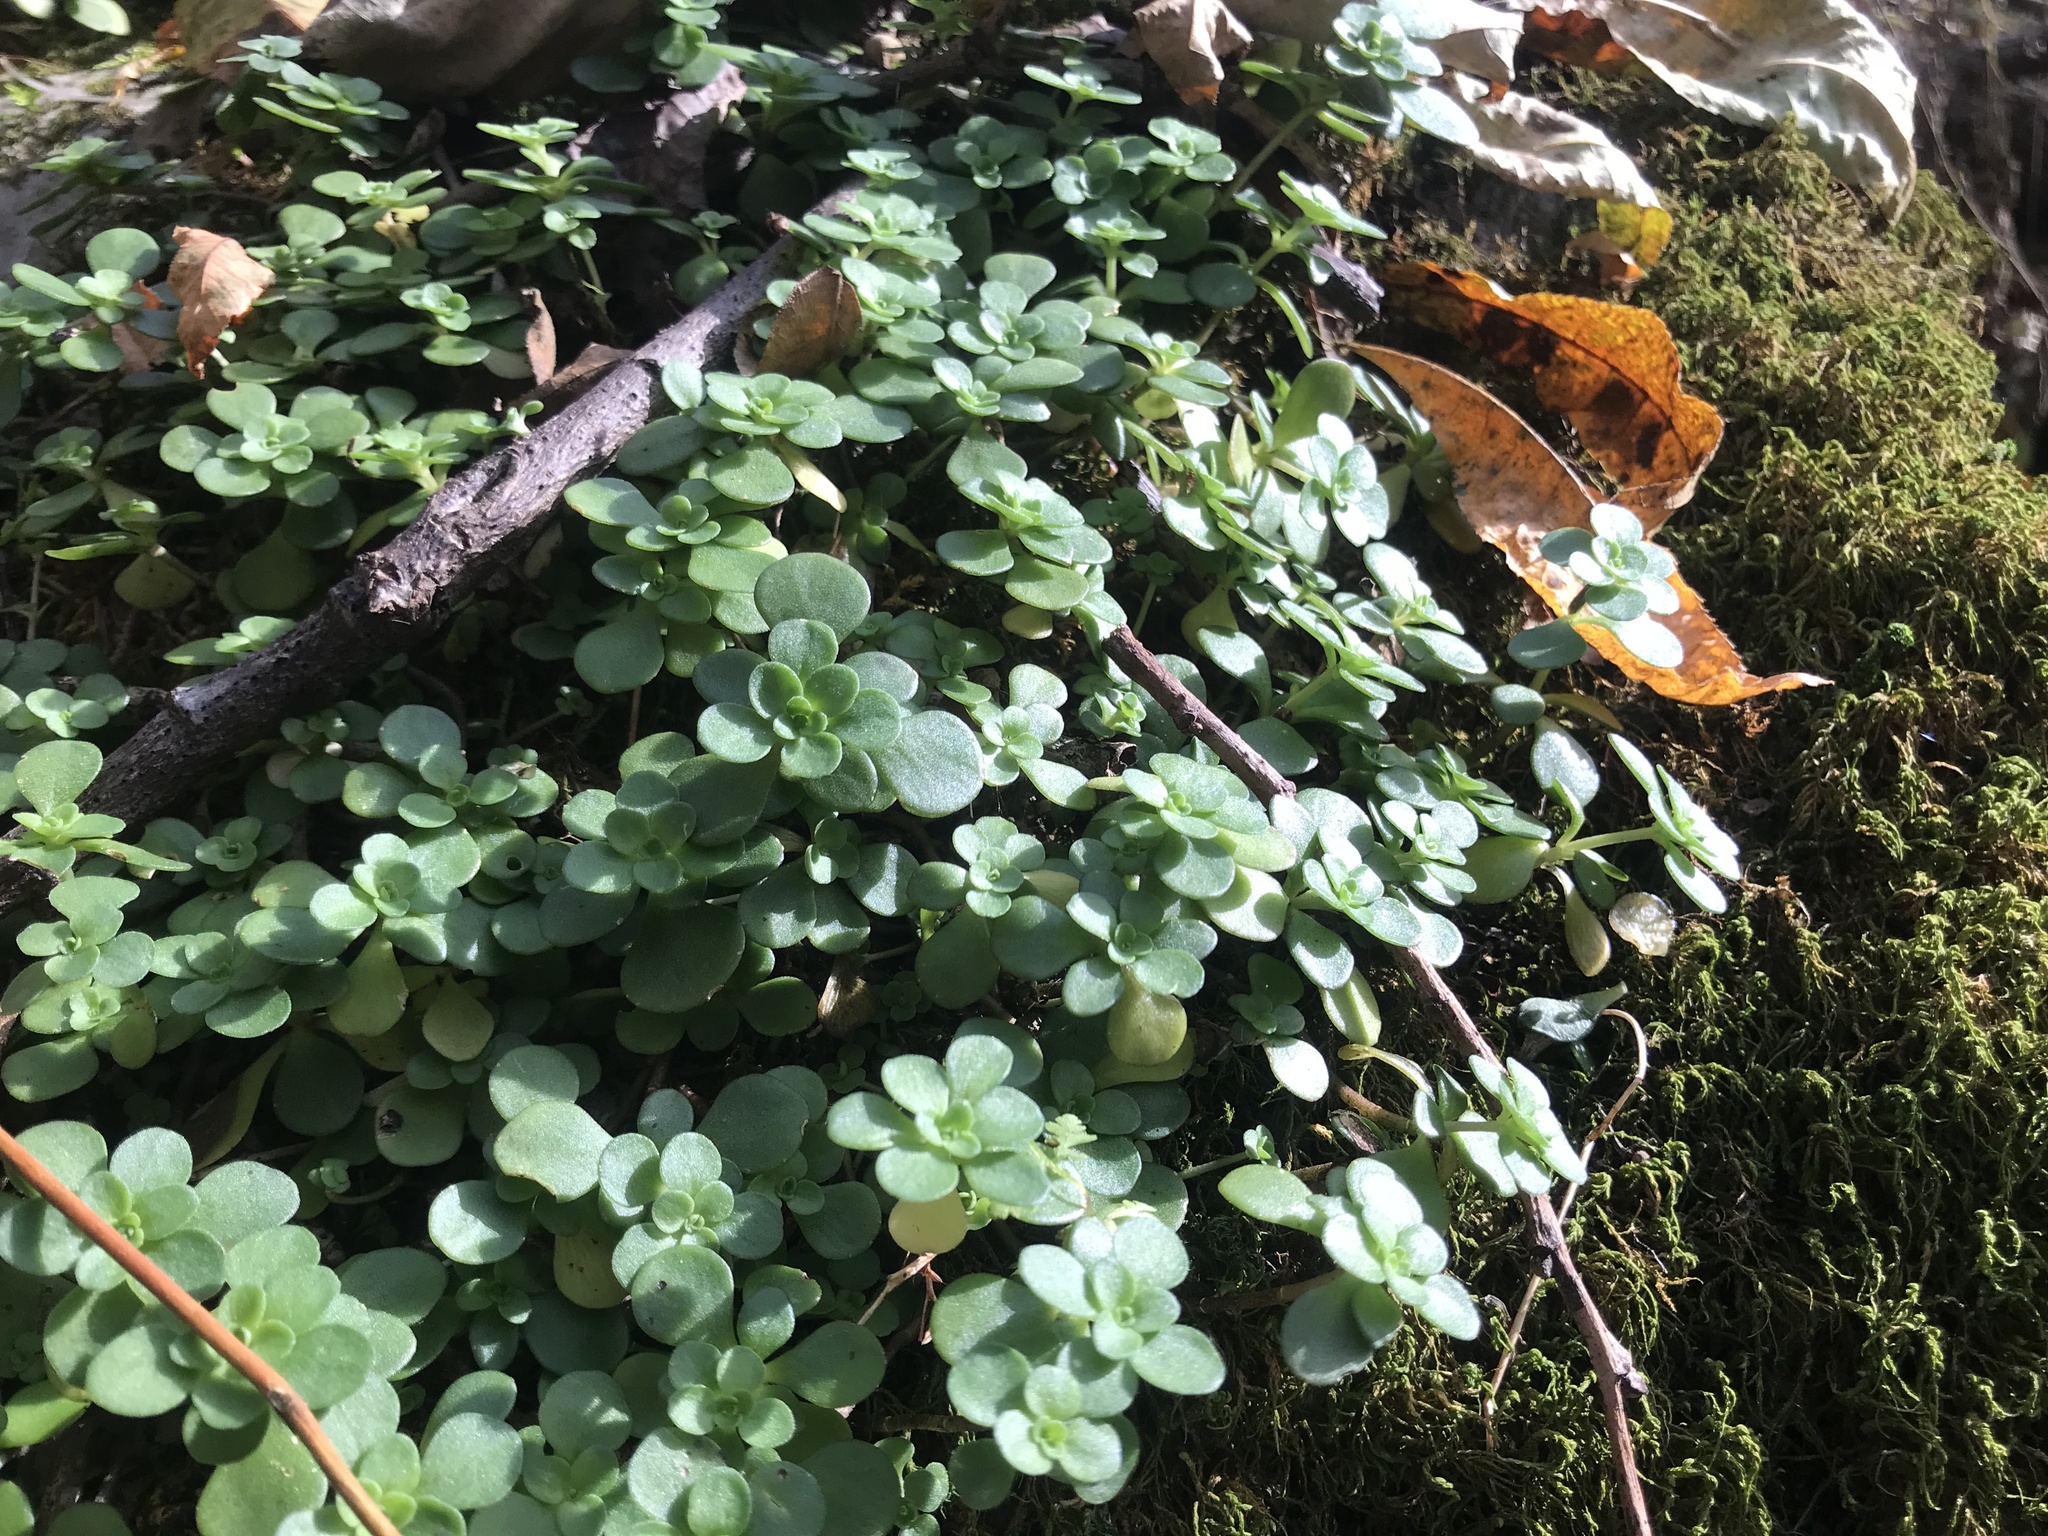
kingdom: Plantae
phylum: Tracheophyta
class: Magnoliopsida
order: Saxifragales
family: Crassulaceae
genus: Sedum
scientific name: Sedum ternatum
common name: Wild stonecrop
